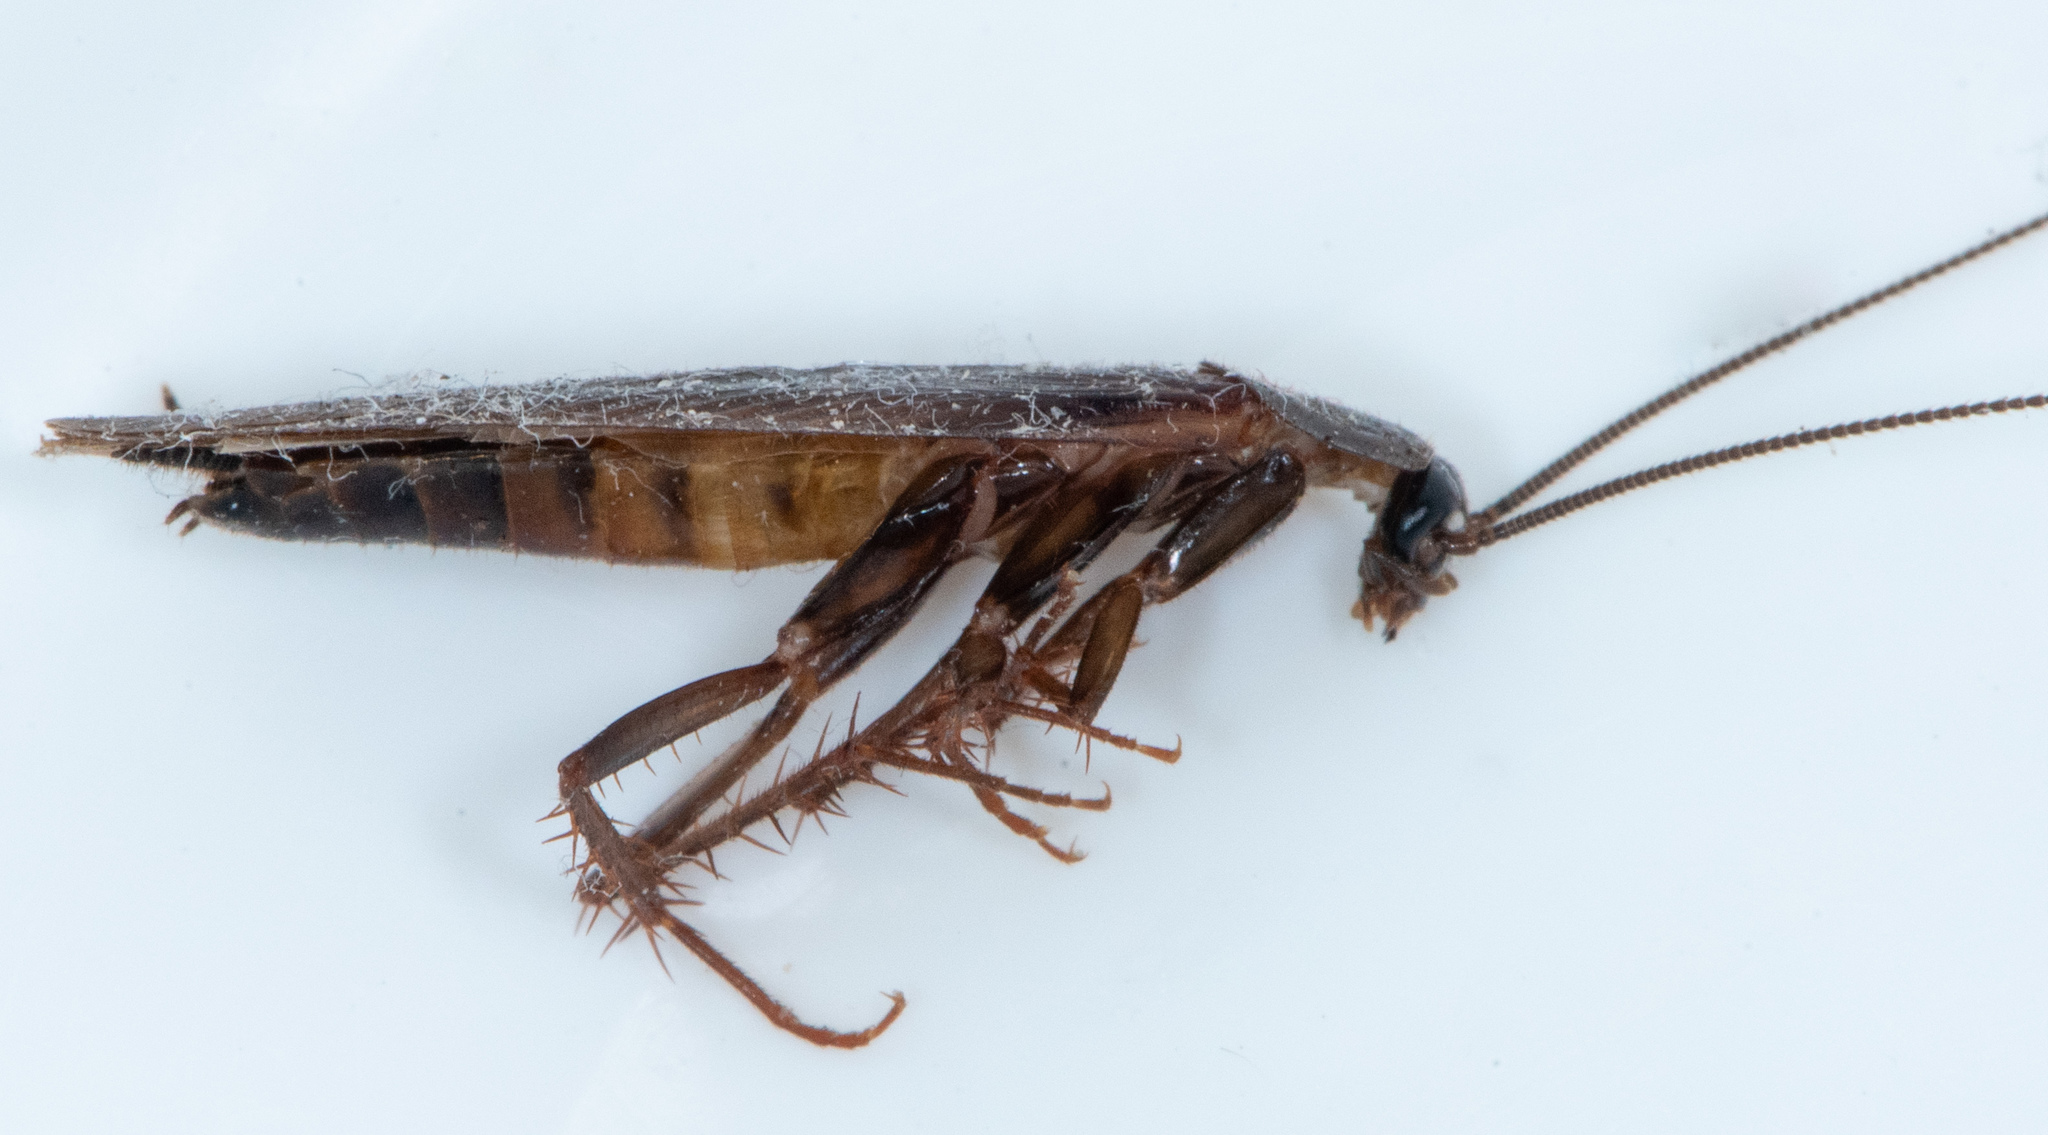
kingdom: Animalia
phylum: Arthropoda
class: Insecta
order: Blattodea
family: Ectobiidae
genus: Parcoblatta
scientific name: Parcoblatta americana
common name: Western wood cockroach
